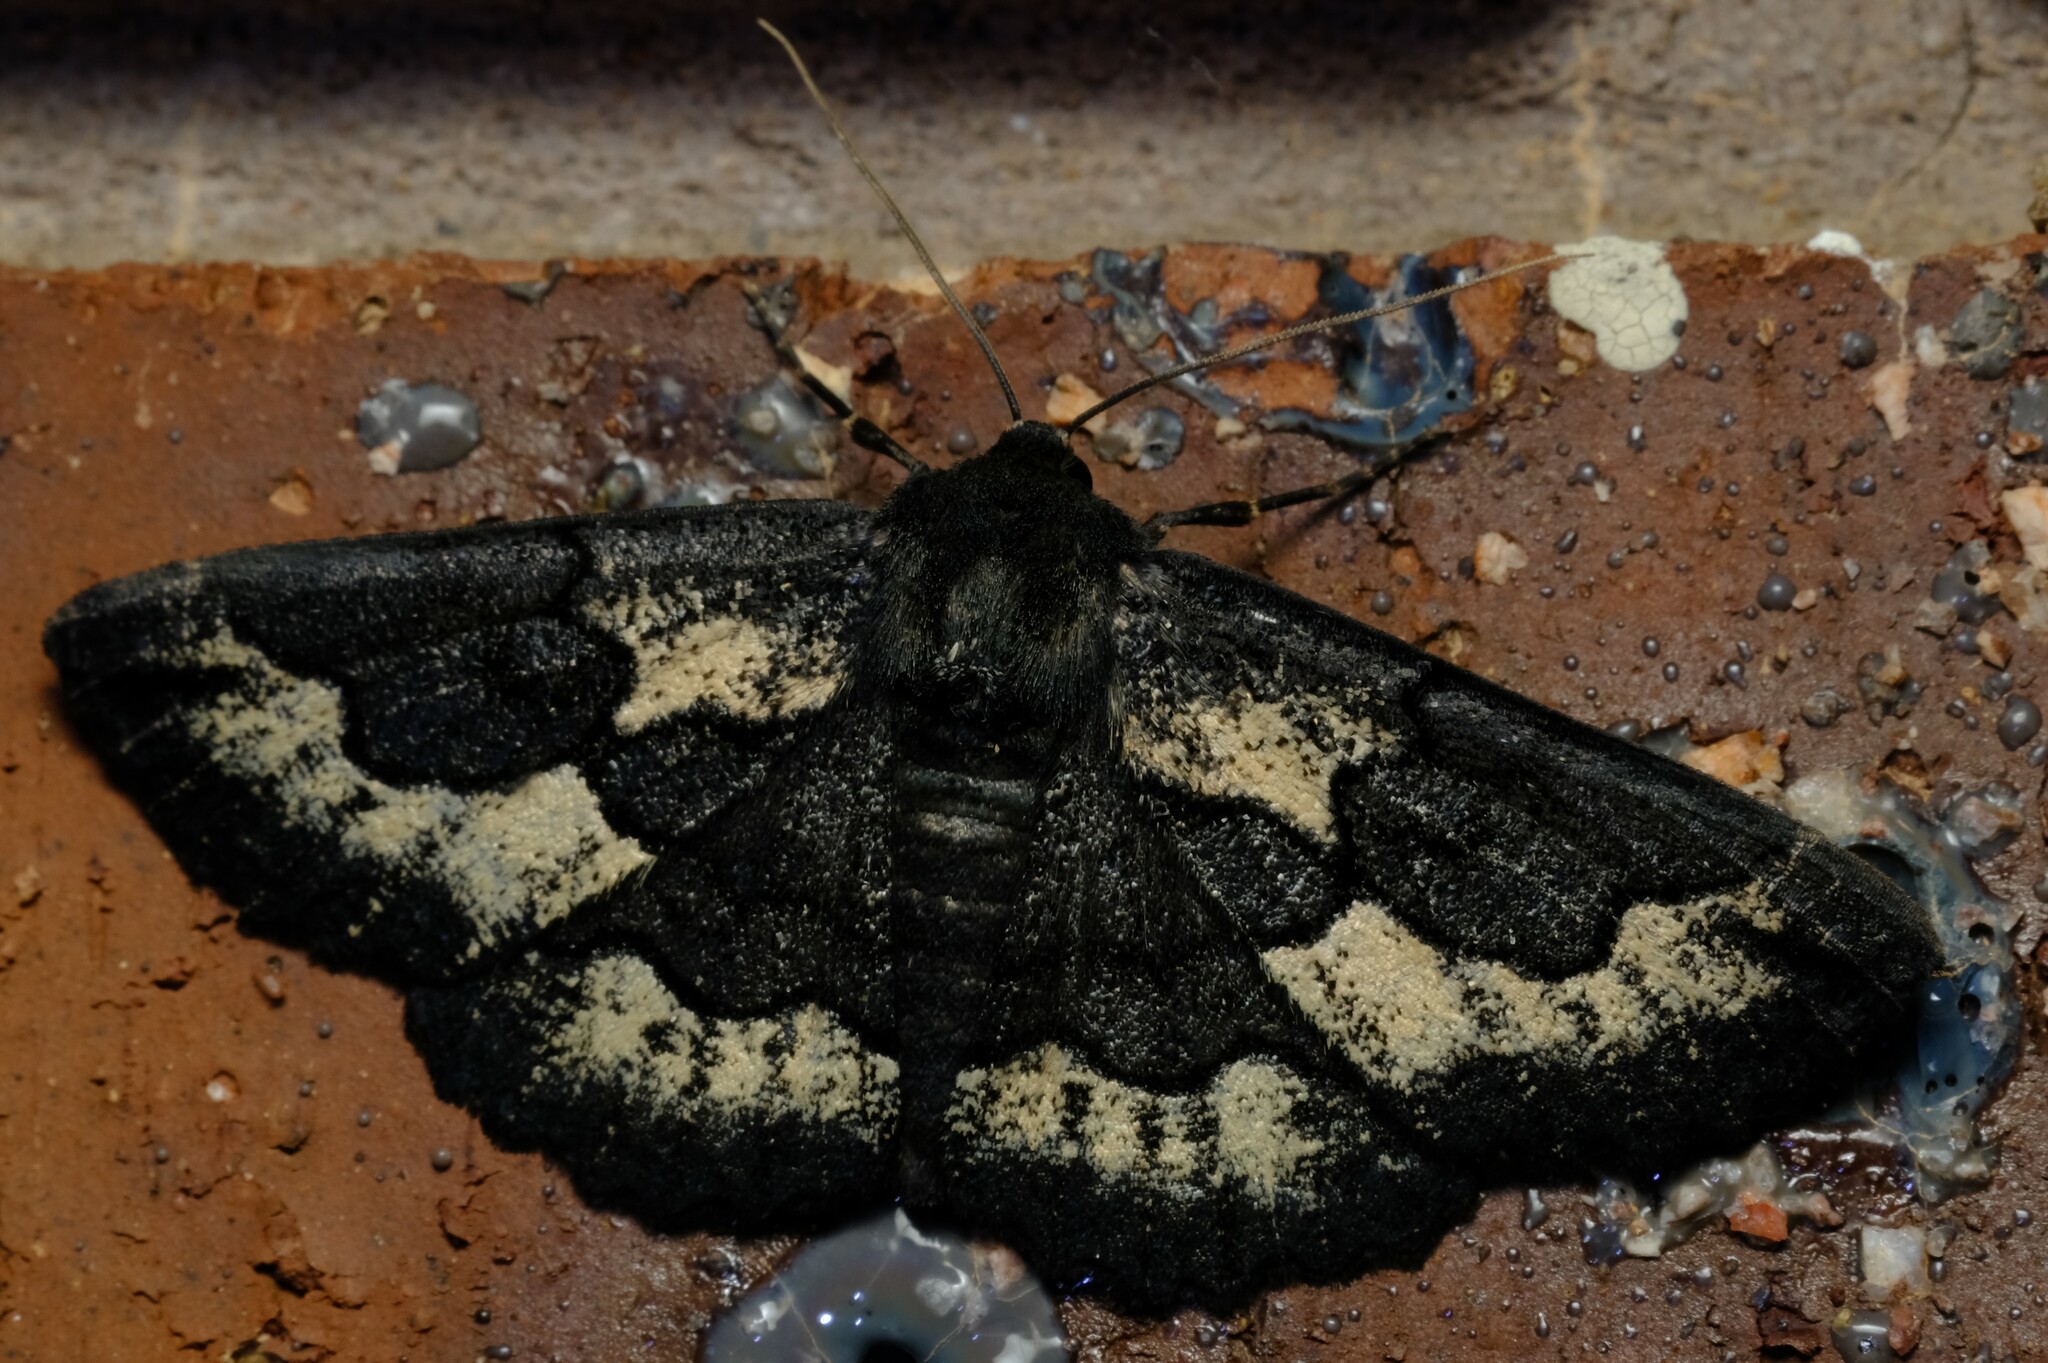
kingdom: Animalia
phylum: Arthropoda
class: Insecta
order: Lepidoptera
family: Geometridae
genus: Melanodes
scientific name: Melanodes anthracitaria
